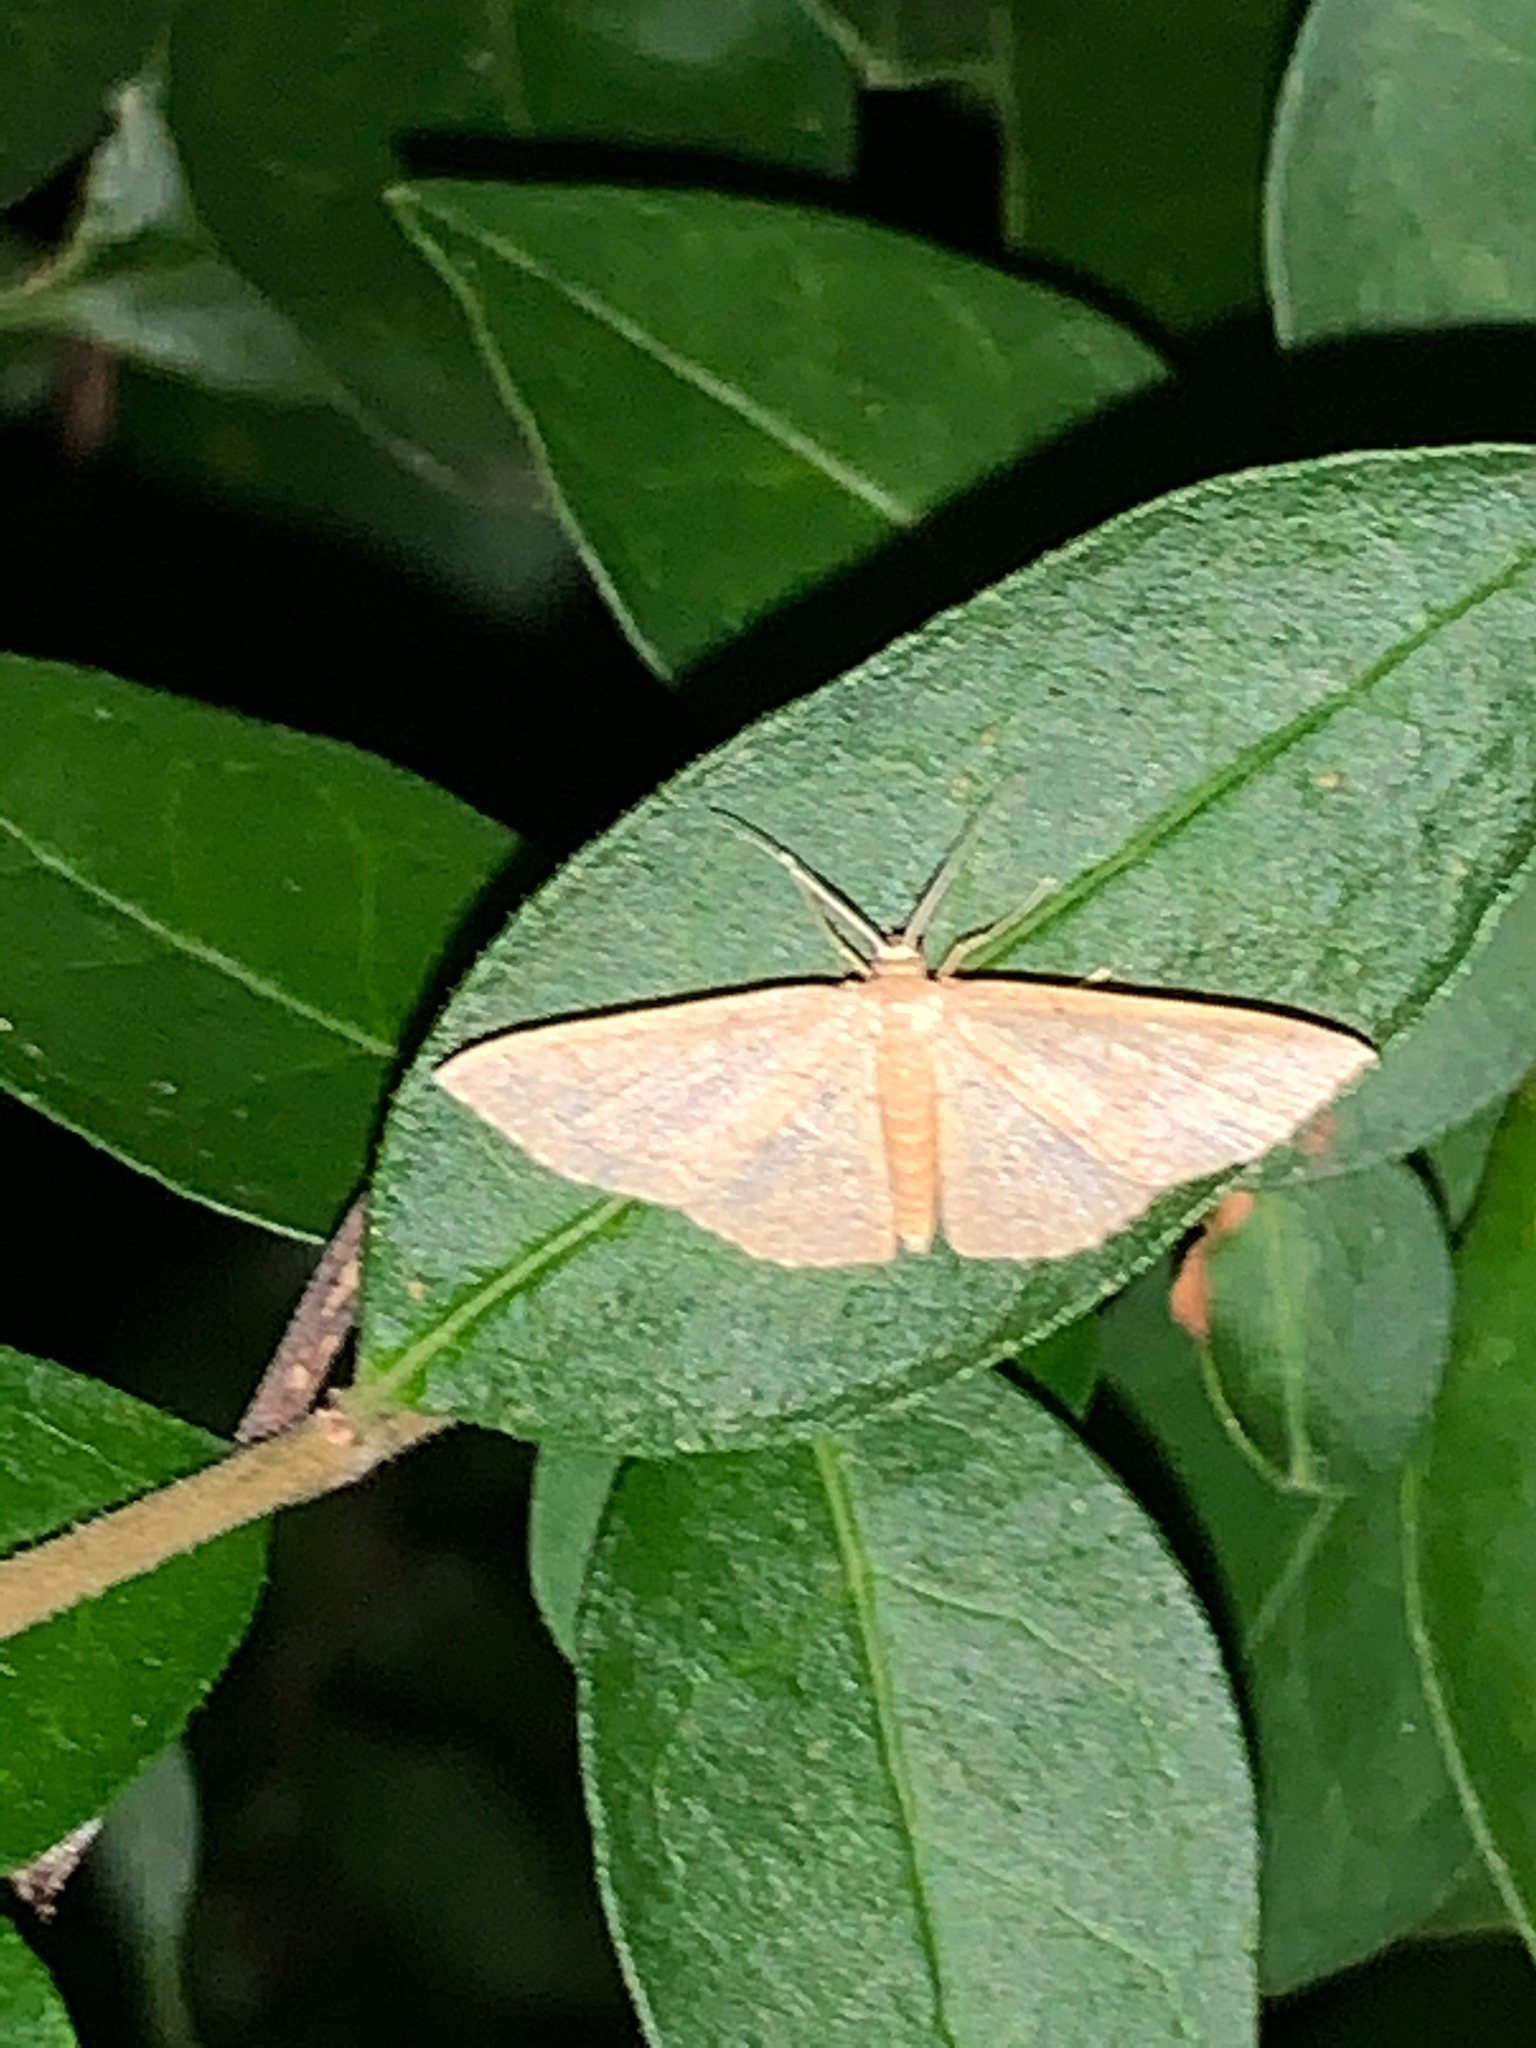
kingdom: Animalia
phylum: Arthropoda
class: Insecta
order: Lepidoptera
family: Geometridae
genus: Pleuroprucha
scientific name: Pleuroprucha insulsaria
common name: Common tan wave
